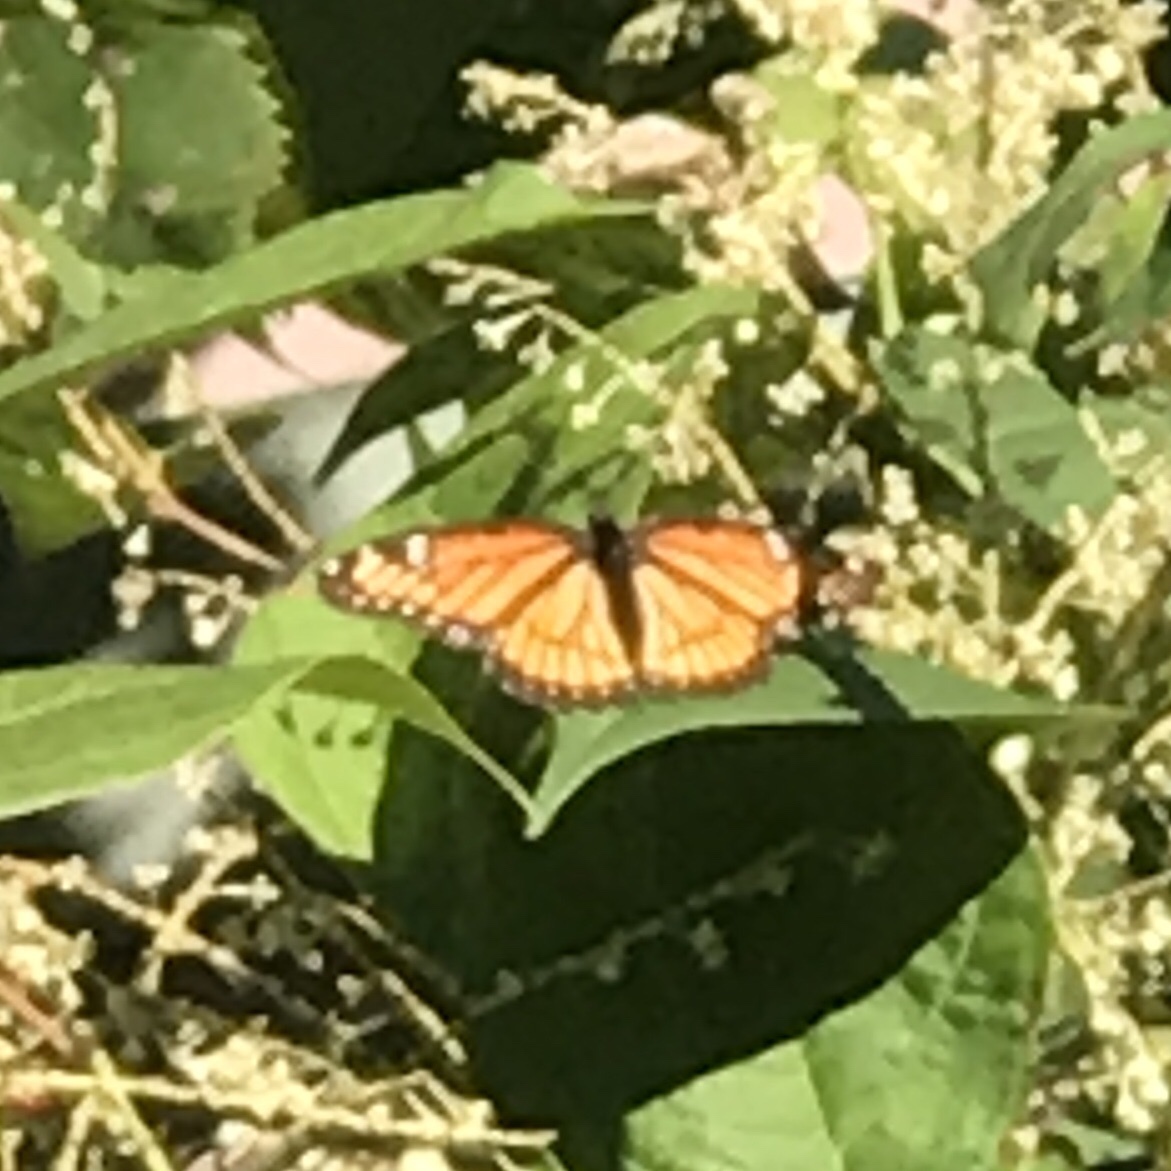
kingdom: Animalia
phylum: Arthropoda
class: Insecta
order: Lepidoptera
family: Nymphalidae
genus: Limenitis
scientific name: Limenitis archippus
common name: Viceroy
